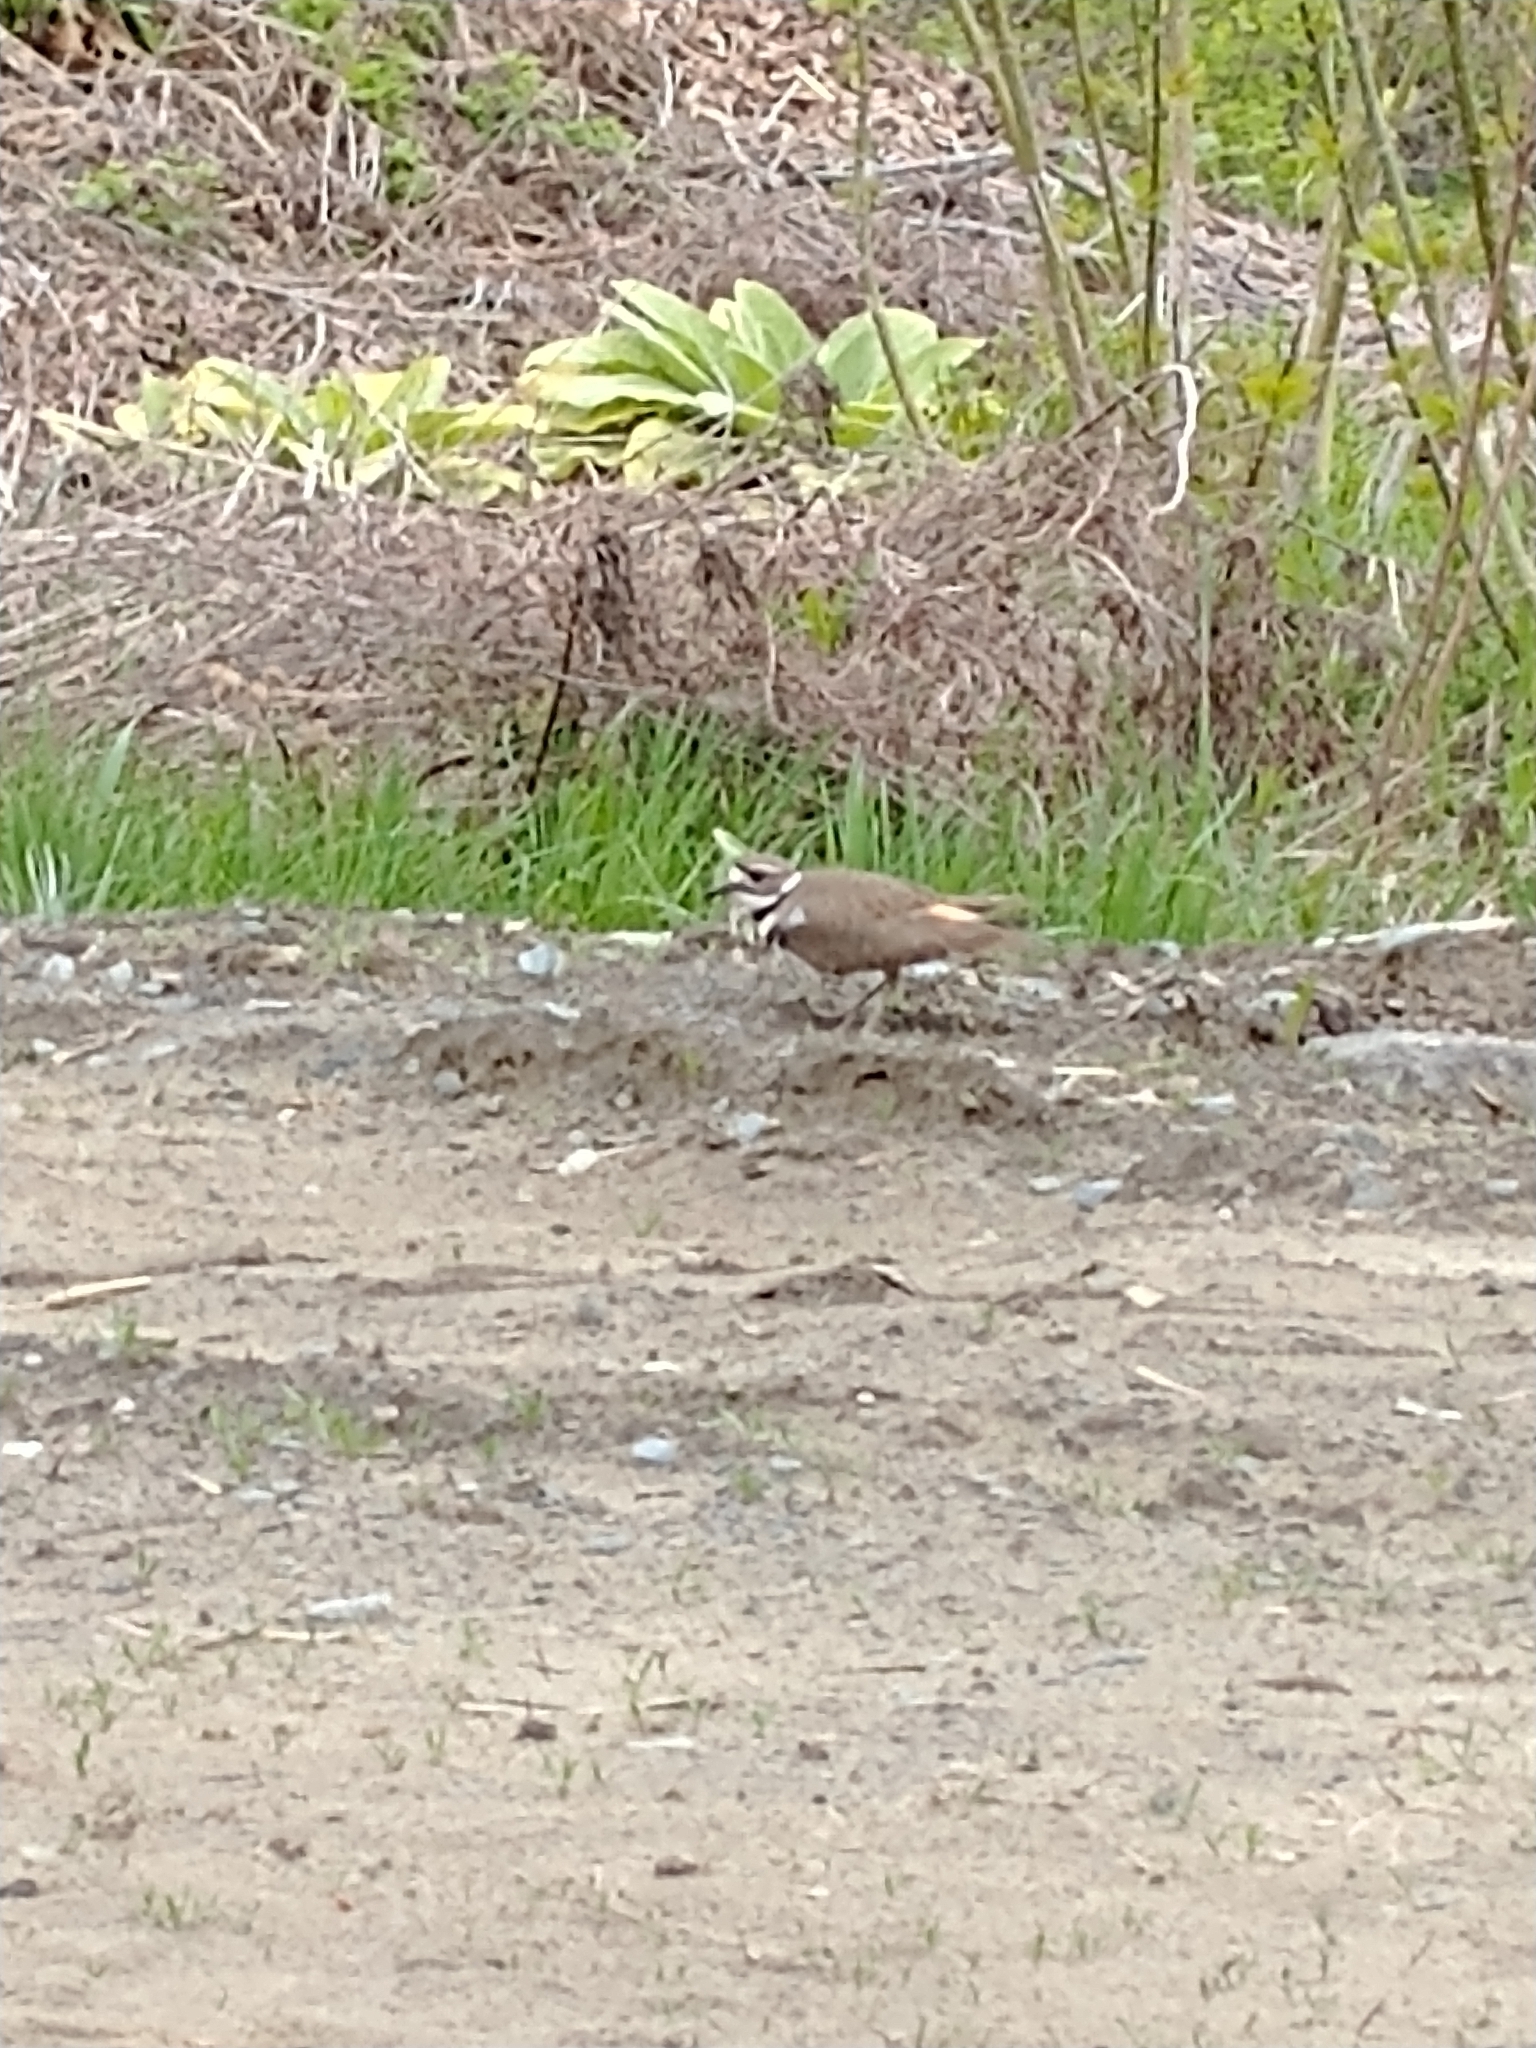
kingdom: Animalia
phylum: Chordata
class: Aves
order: Charadriiformes
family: Charadriidae
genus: Charadrius
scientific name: Charadrius vociferus
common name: Killdeer
